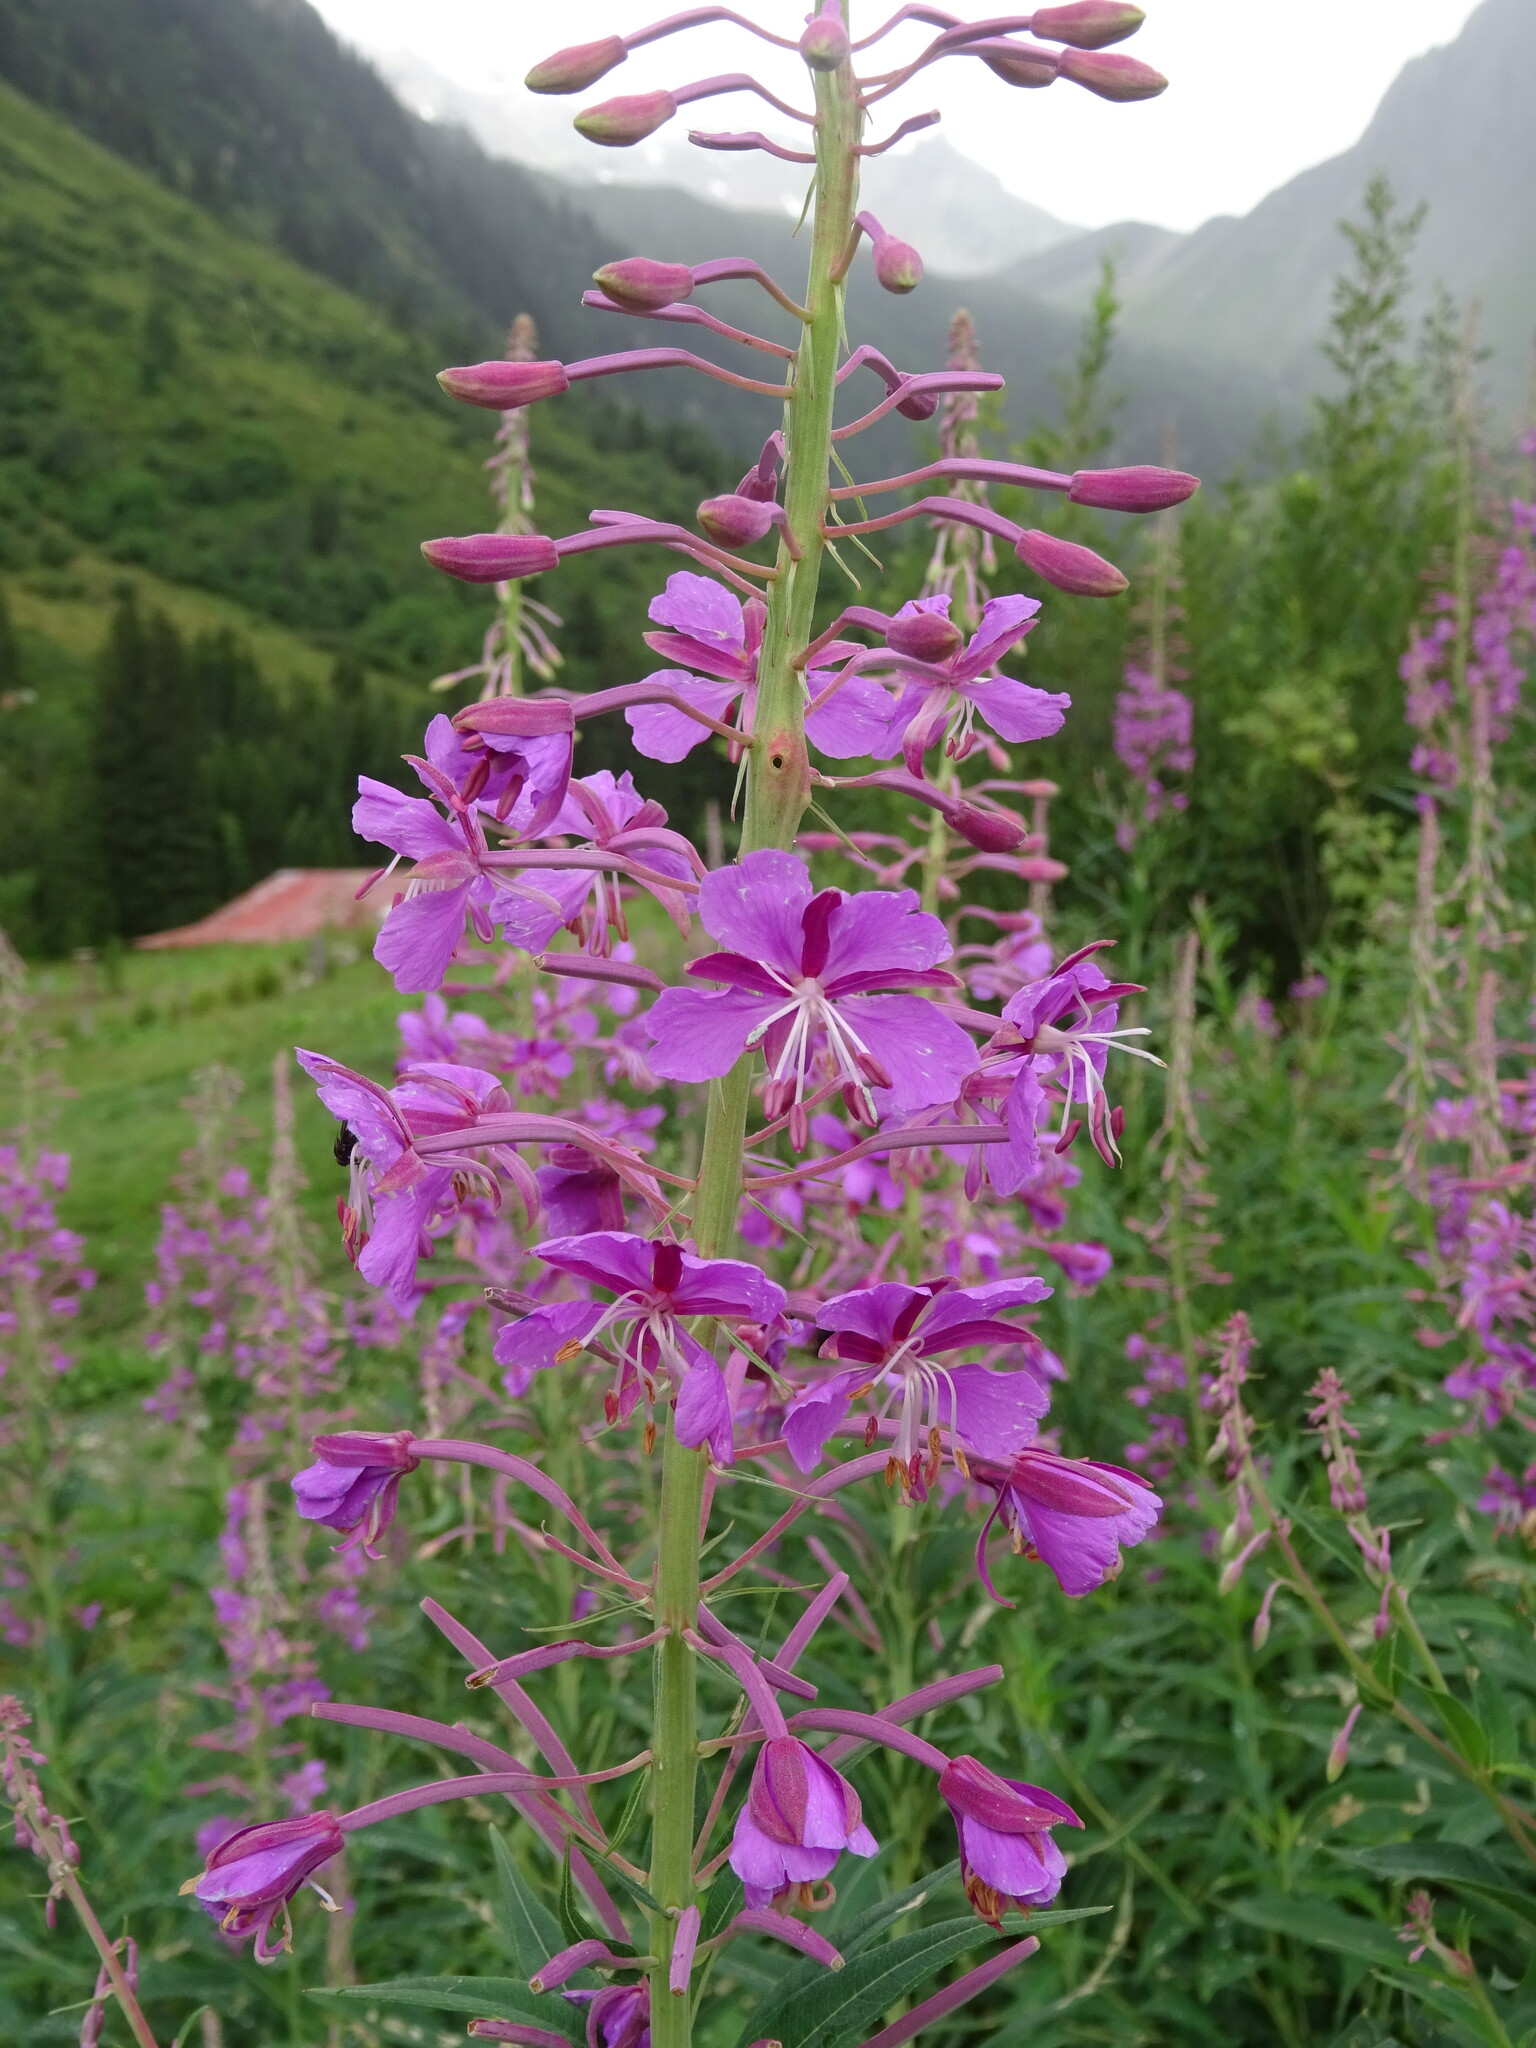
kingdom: Plantae
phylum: Tracheophyta
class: Magnoliopsida
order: Myrtales
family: Onagraceae
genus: Chamaenerion
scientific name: Chamaenerion angustifolium
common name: Fireweed
